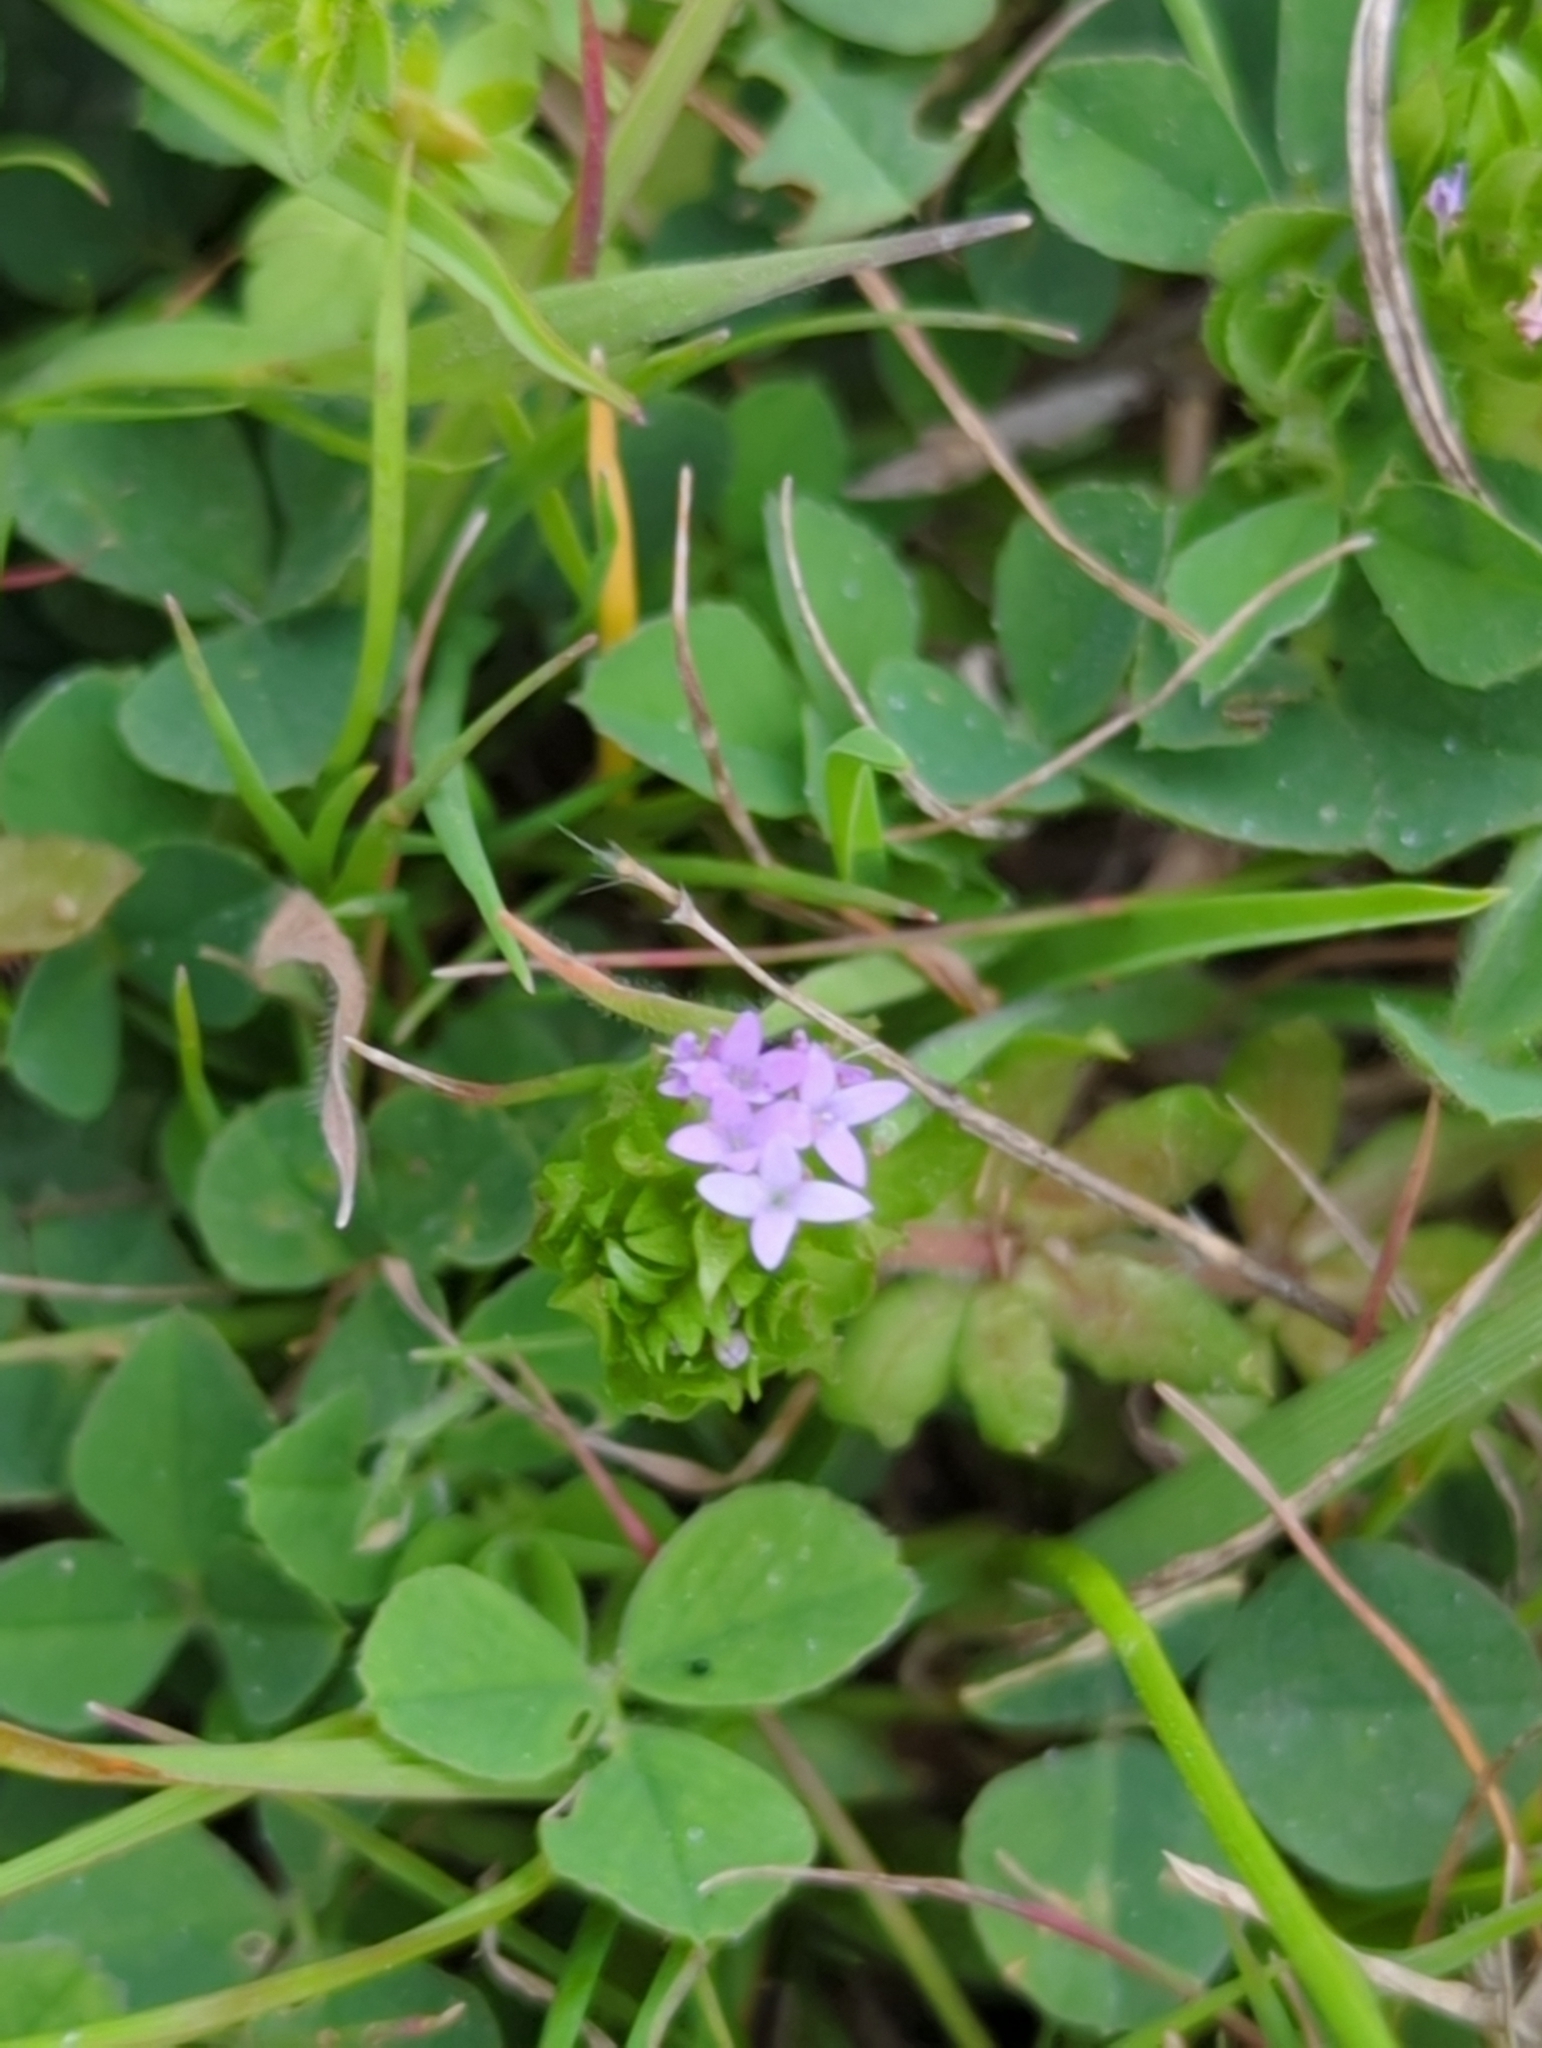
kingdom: Plantae
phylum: Tracheophyta
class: Magnoliopsida
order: Gentianales
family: Rubiaceae
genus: Sherardia
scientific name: Sherardia arvensis
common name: Field madder
